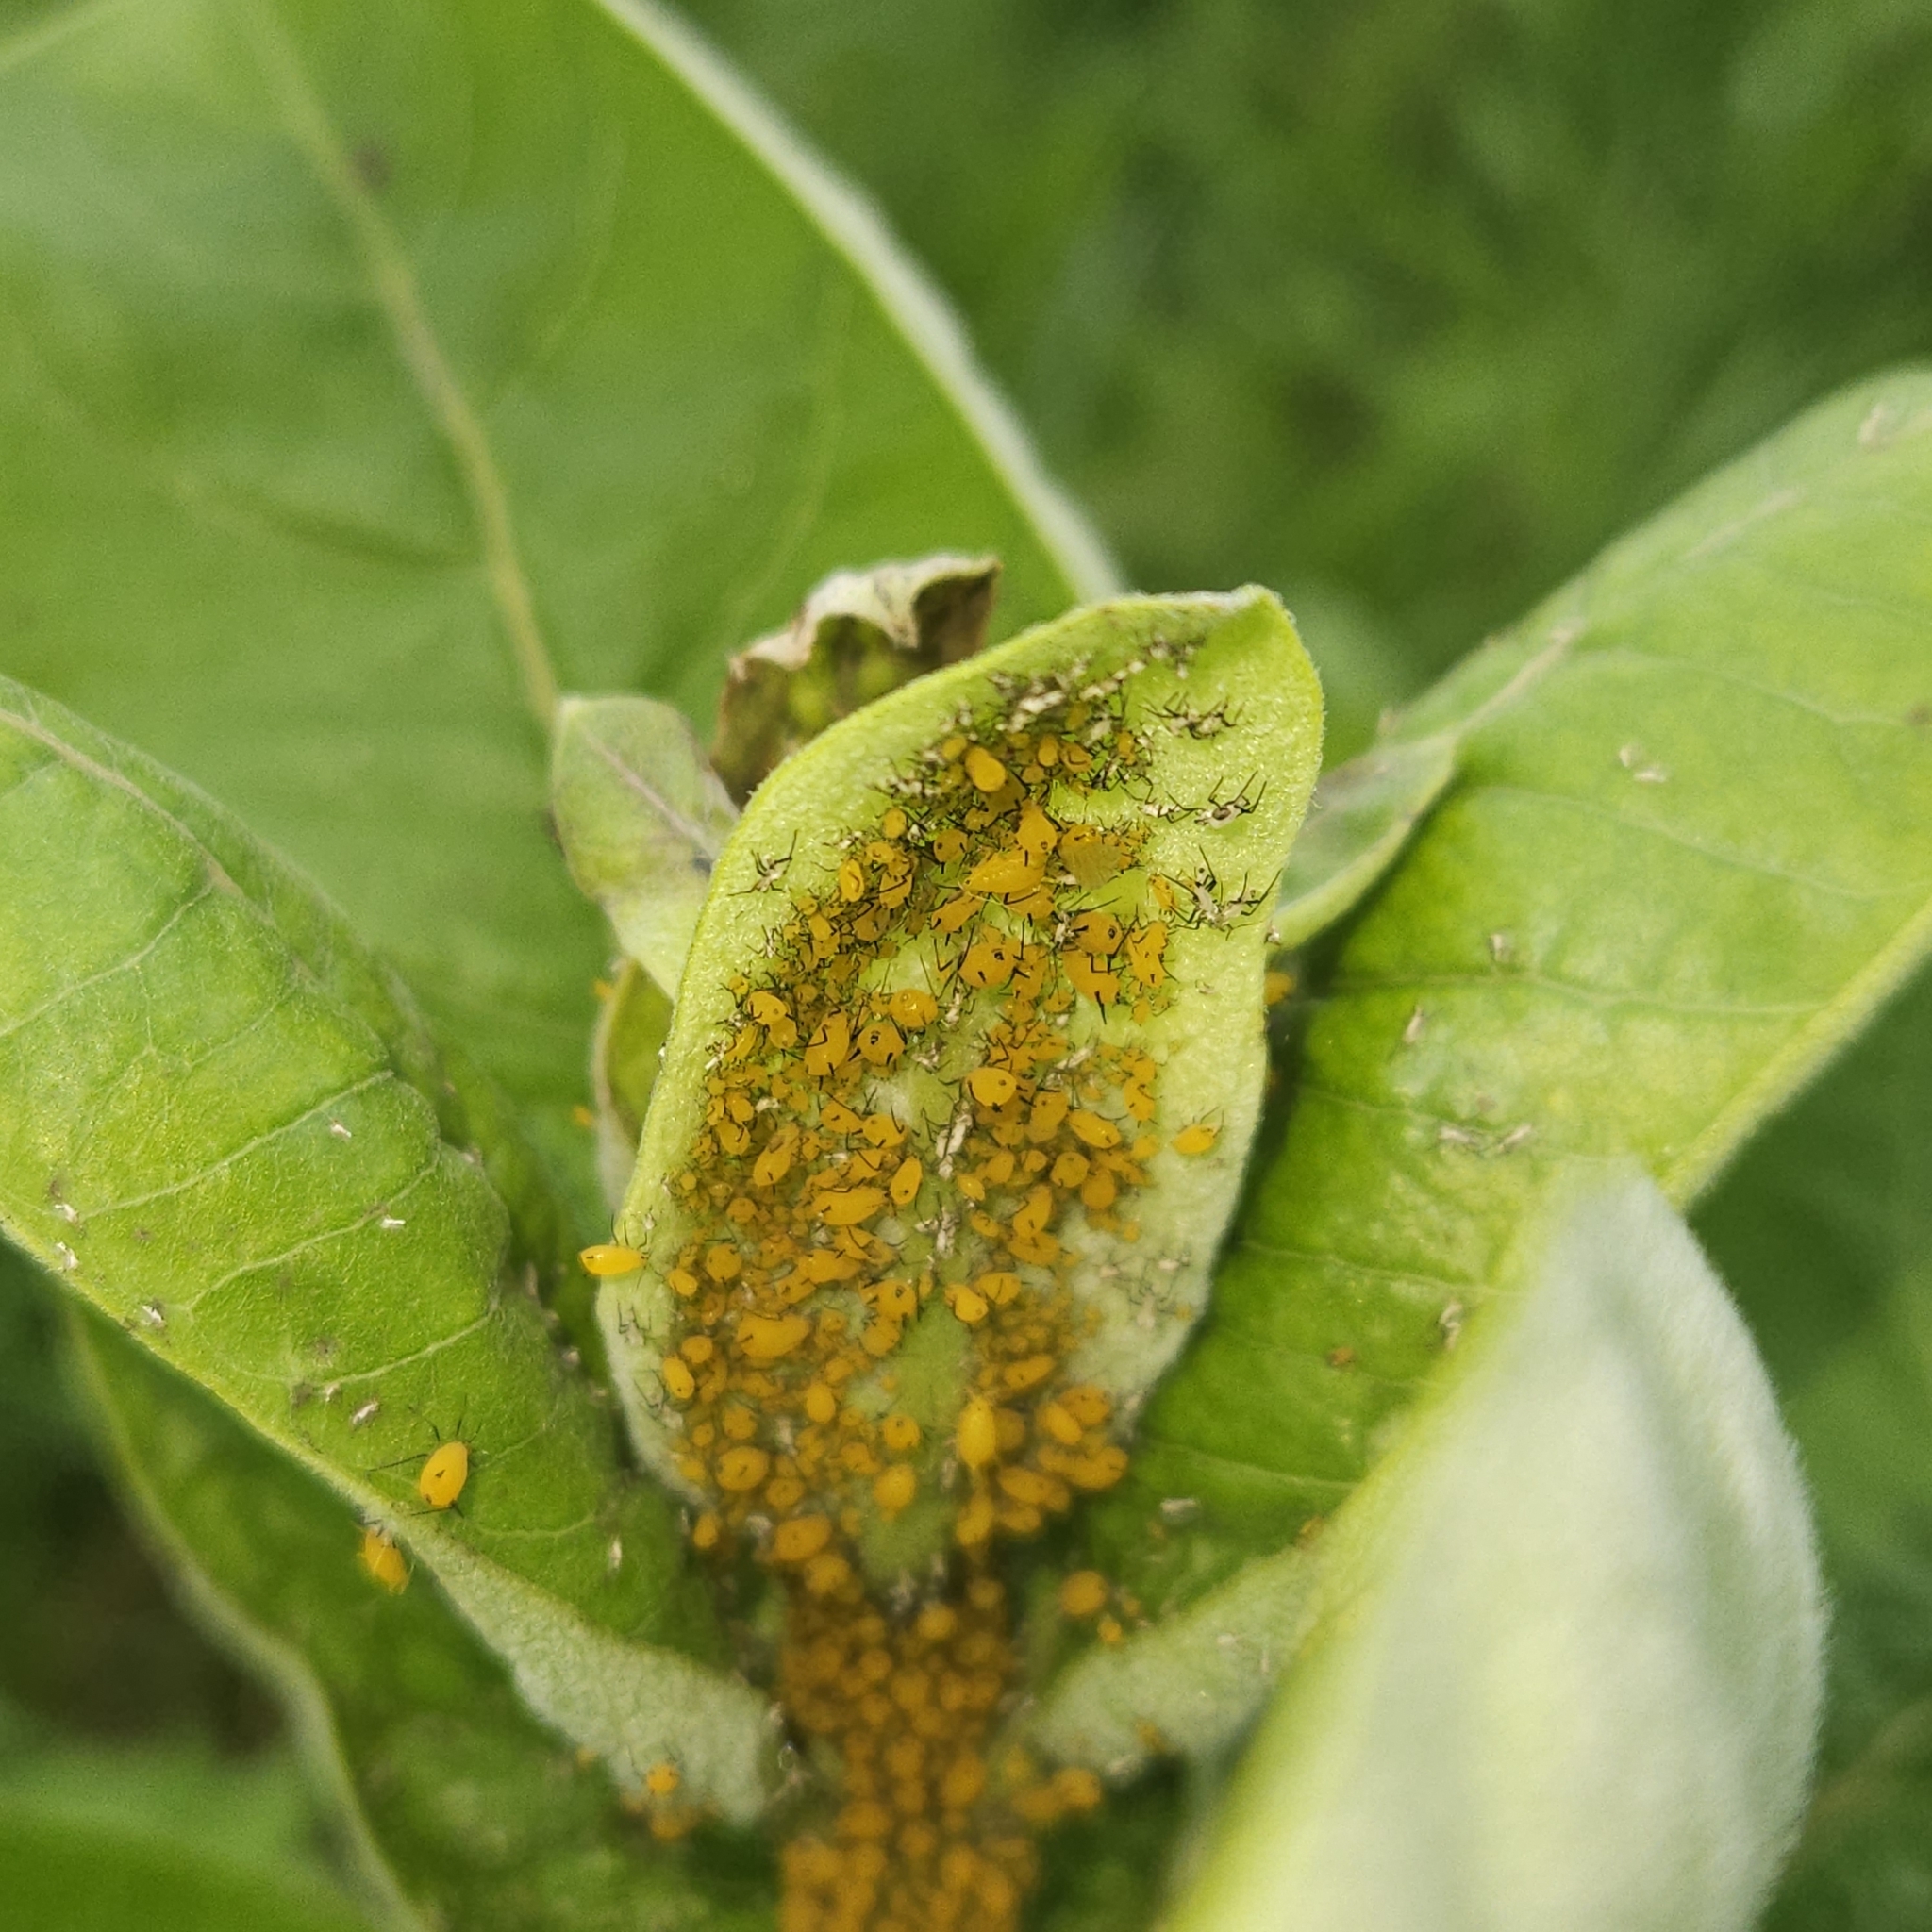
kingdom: Animalia
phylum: Arthropoda
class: Insecta
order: Hemiptera
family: Aphididae
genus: Aphis
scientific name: Aphis nerii
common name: Oleander aphid
